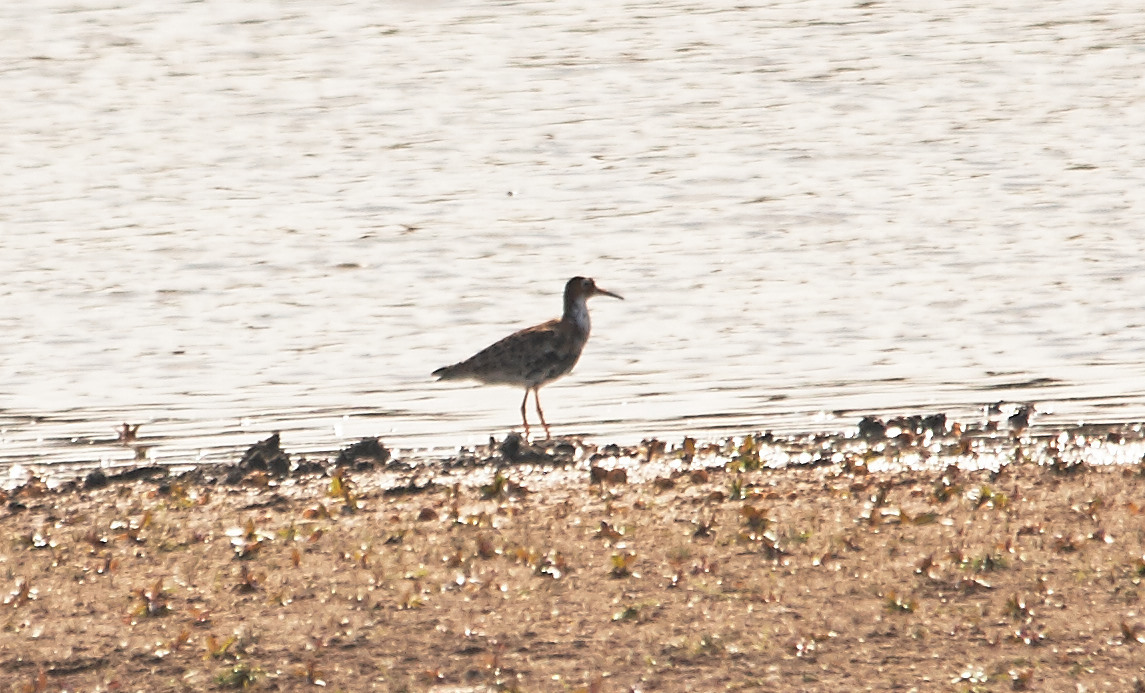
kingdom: Animalia
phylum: Chordata
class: Aves
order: Charadriiformes
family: Scolopacidae
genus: Calidris
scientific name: Calidris pugnax
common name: Ruff
